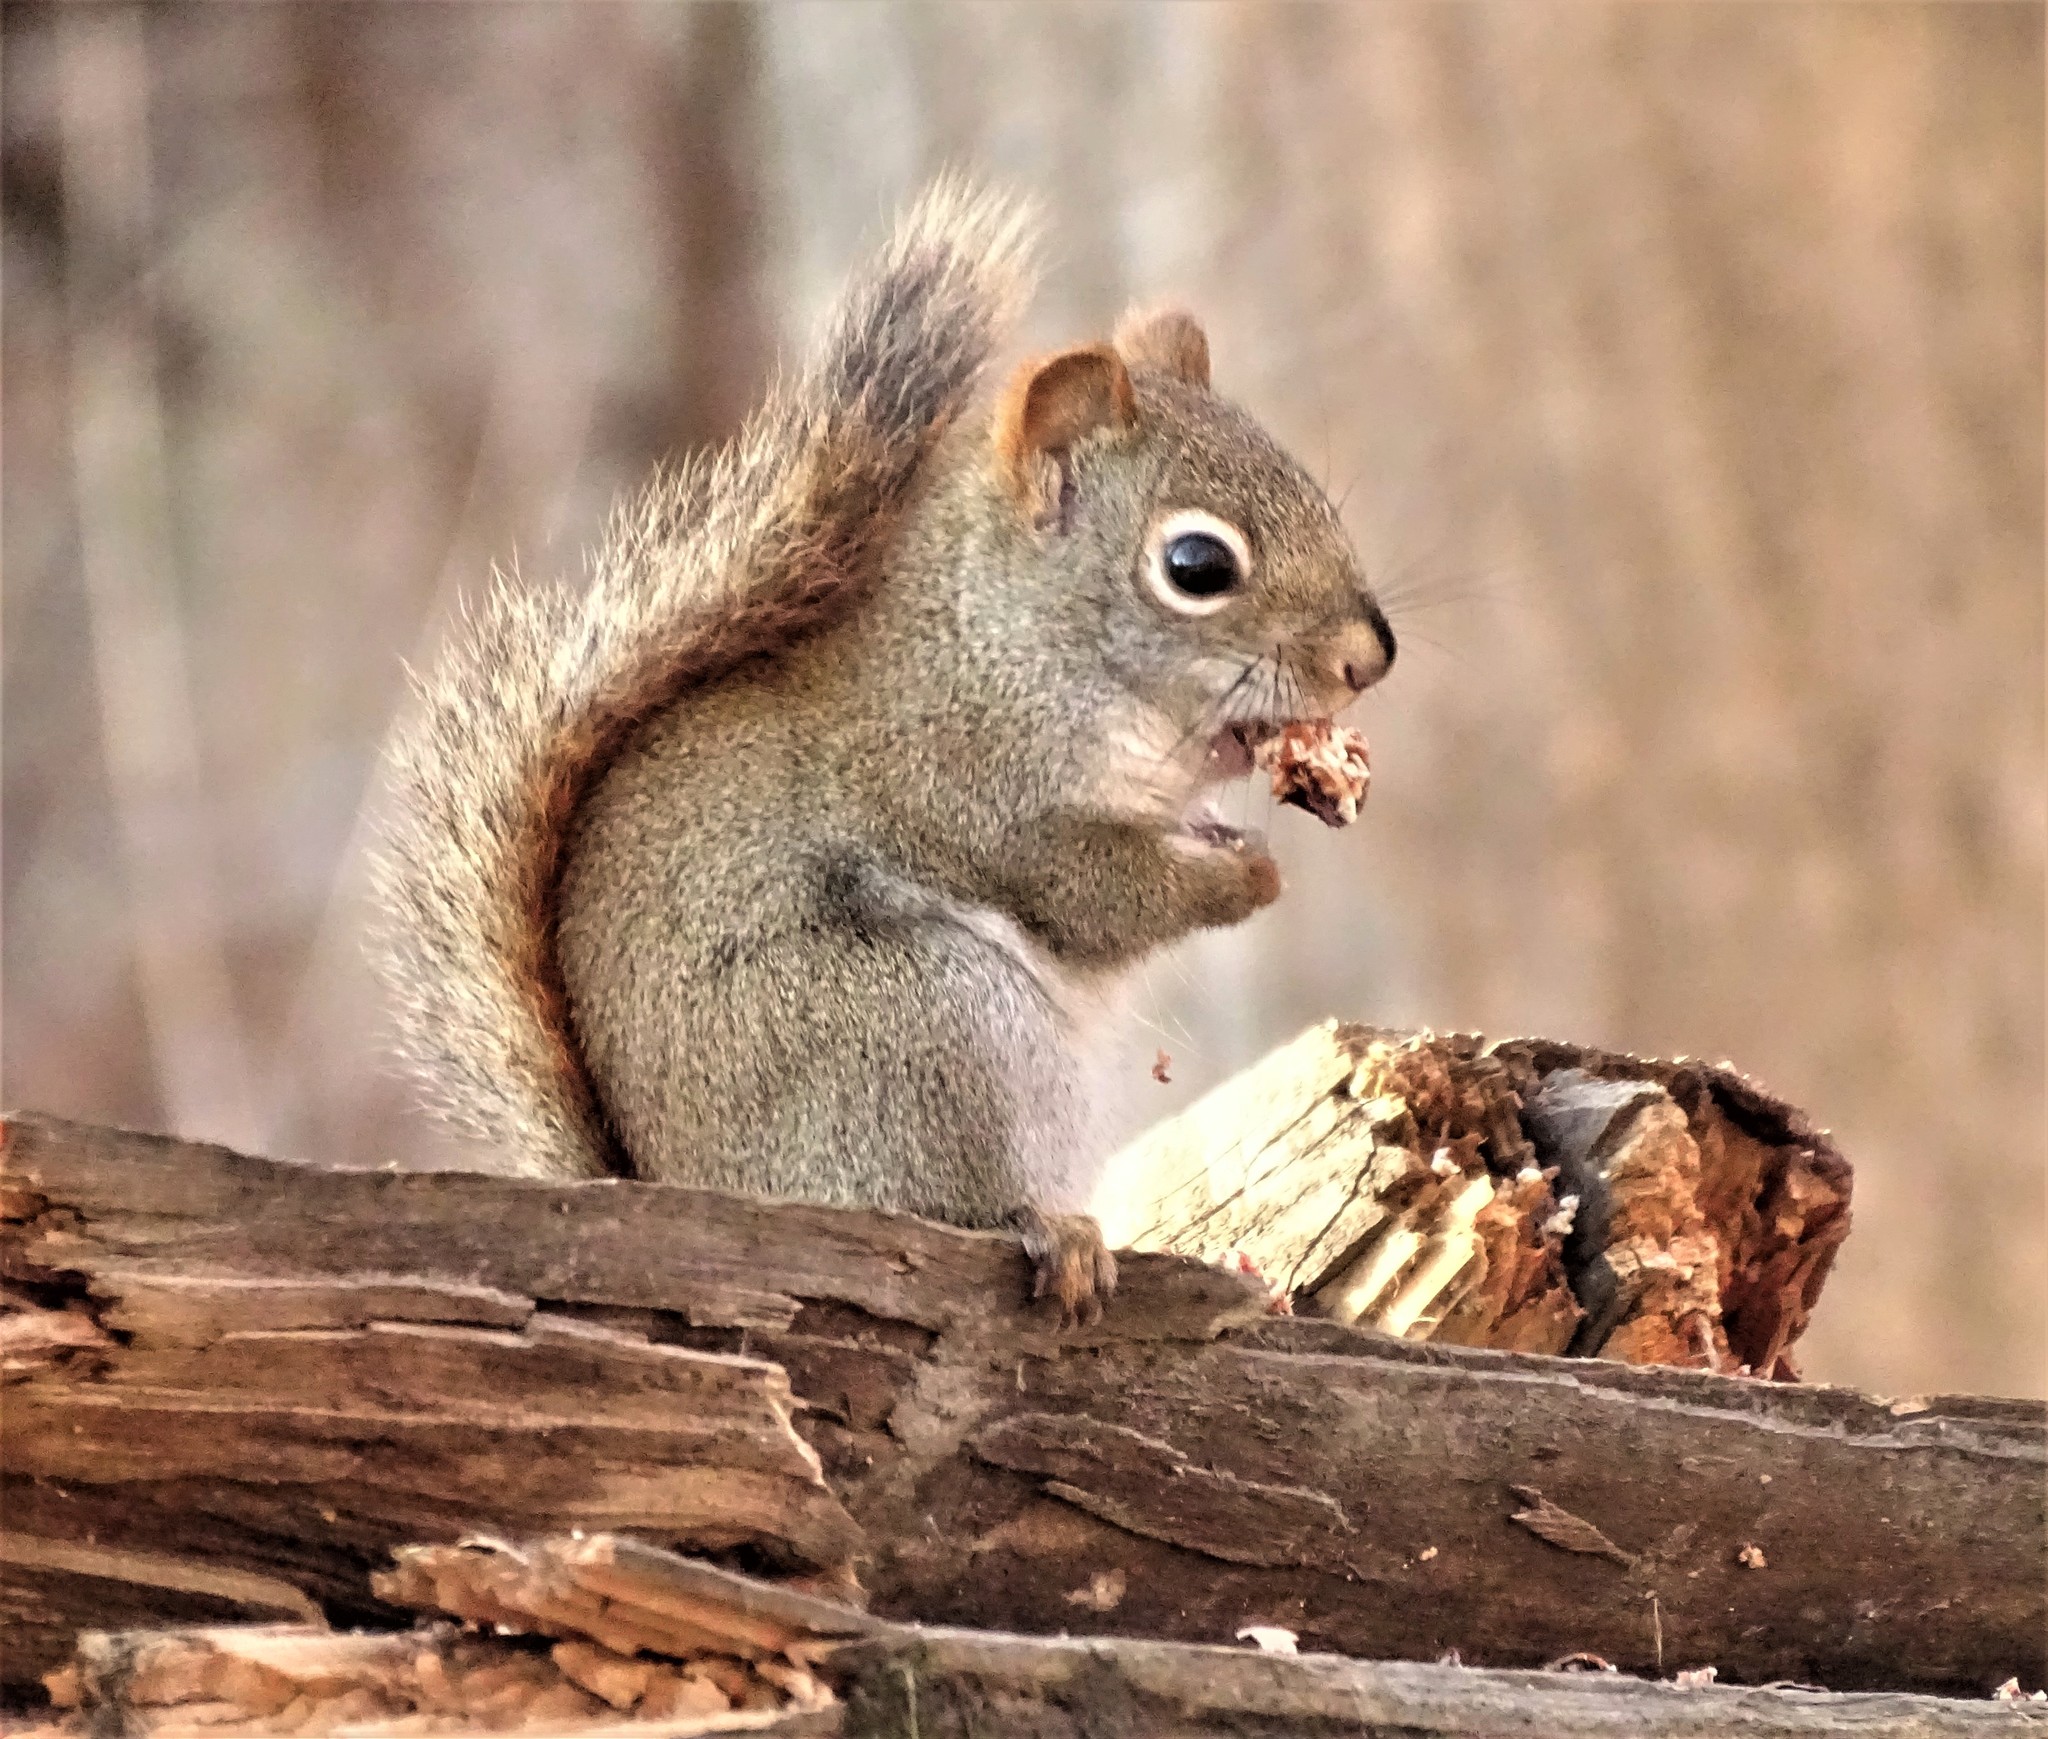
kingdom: Animalia
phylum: Chordata
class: Mammalia
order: Rodentia
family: Sciuridae
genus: Tamiasciurus
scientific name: Tamiasciurus hudsonicus
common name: Red squirrel
